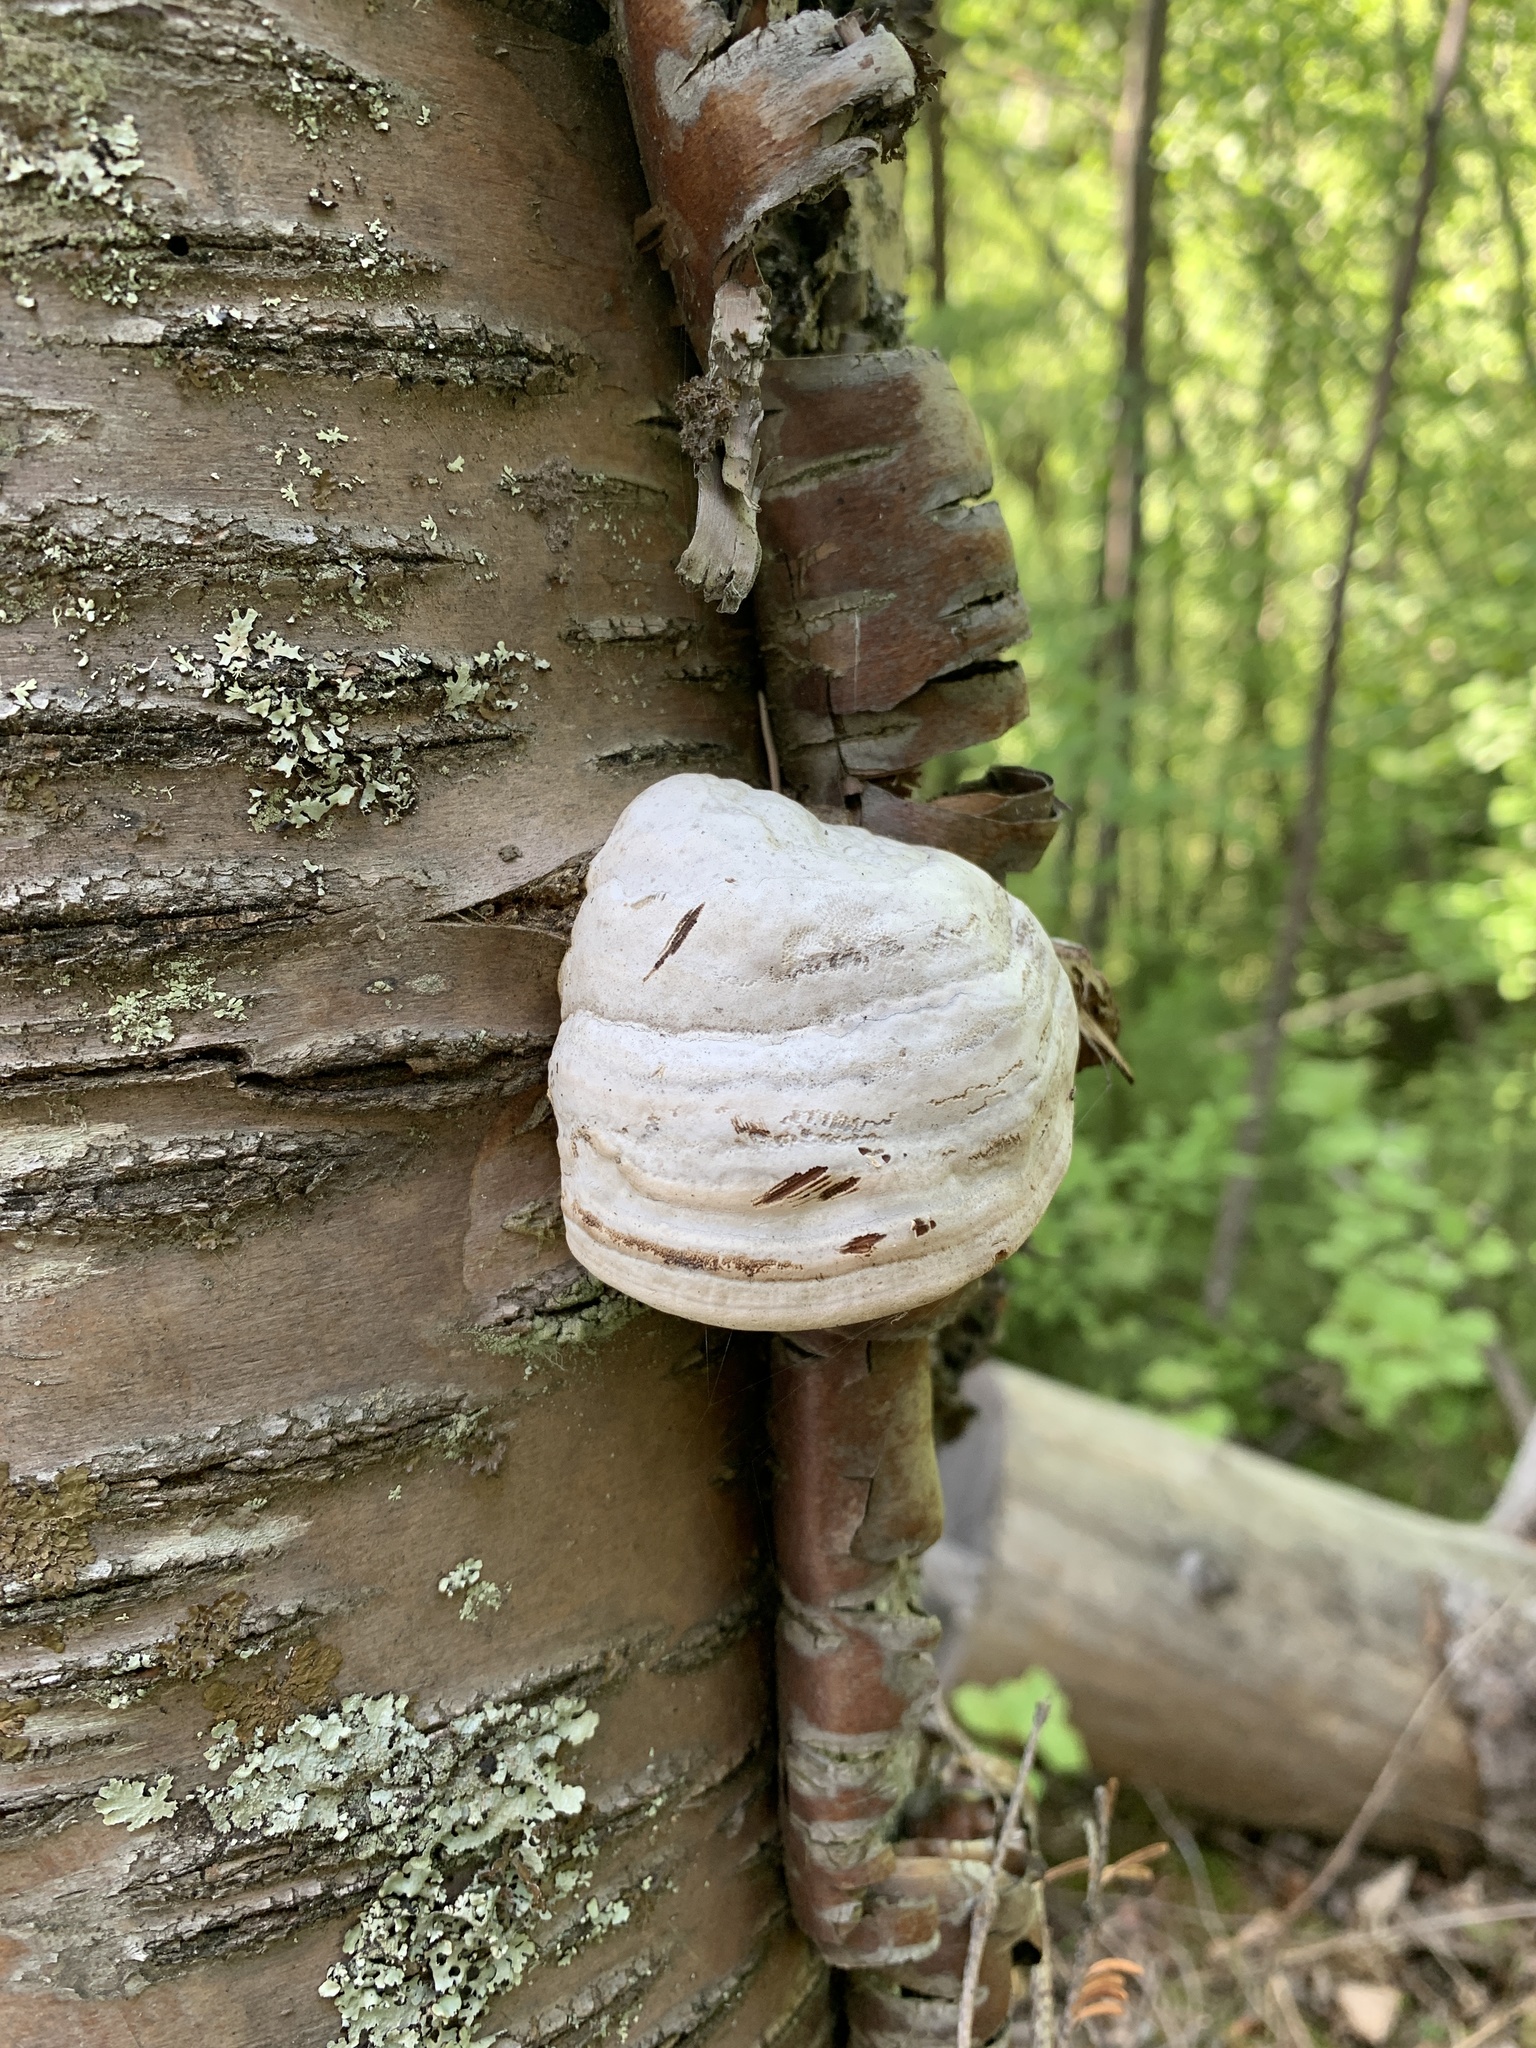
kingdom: Fungi
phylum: Basidiomycota
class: Agaricomycetes
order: Polyporales
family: Polyporaceae
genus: Fomes
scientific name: Fomes fomentarius
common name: Hoof fungus
